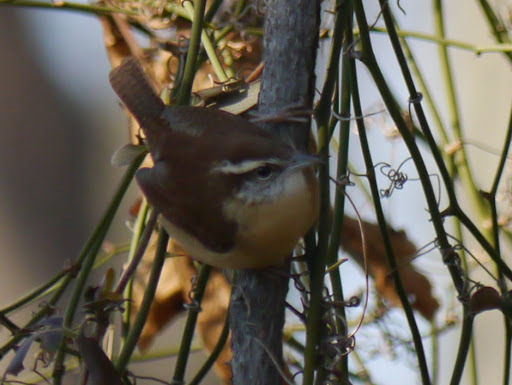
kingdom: Animalia
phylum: Chordata
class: Aves
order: Passeriformes
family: Troglodytidae
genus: Thryothorus
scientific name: Thryothorus ludovicianus
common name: Carolina wren
